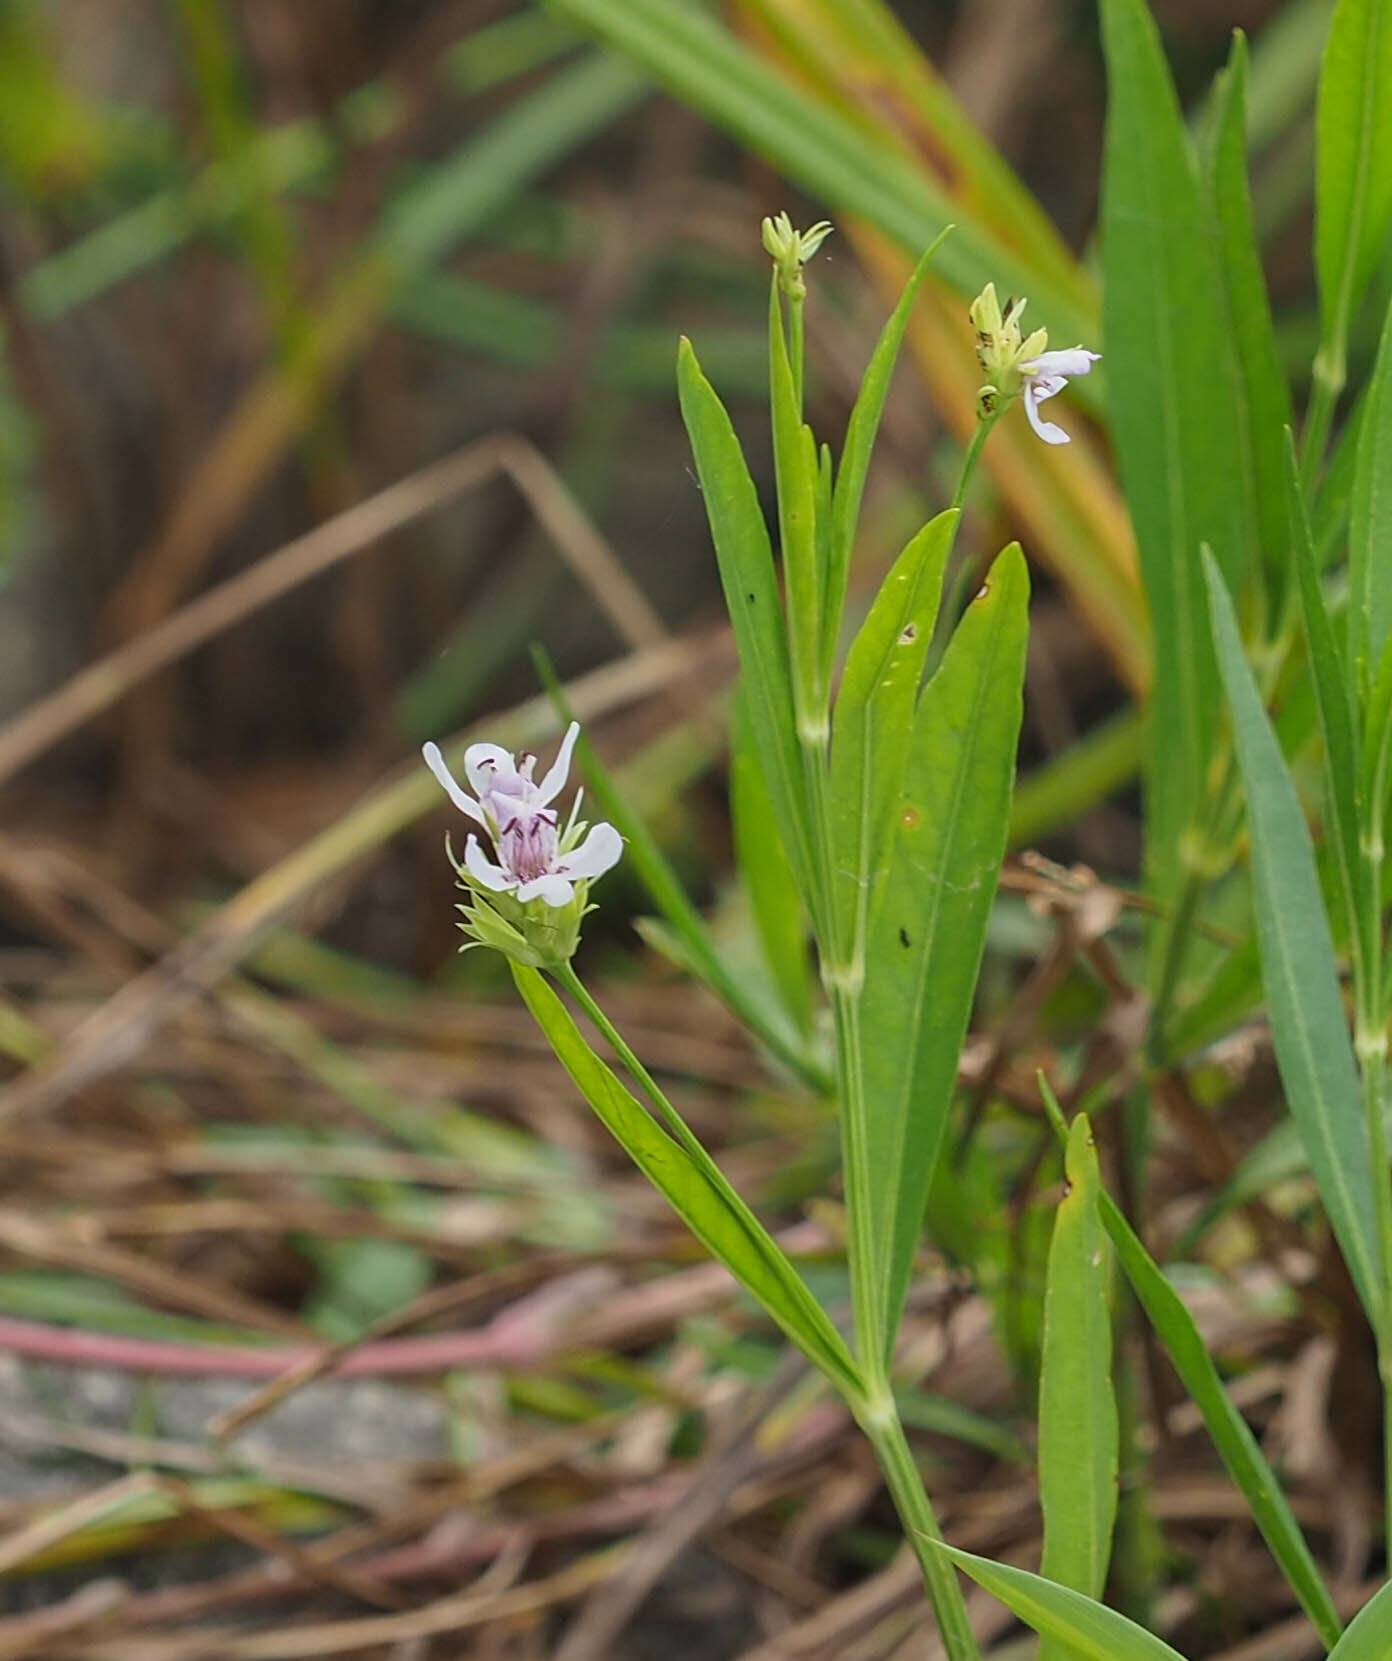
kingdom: Plantae
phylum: Tracheophyta
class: Magnoliopsida
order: Lamiales
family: Acanthaceae
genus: Dianthera
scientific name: Dianthera americana
